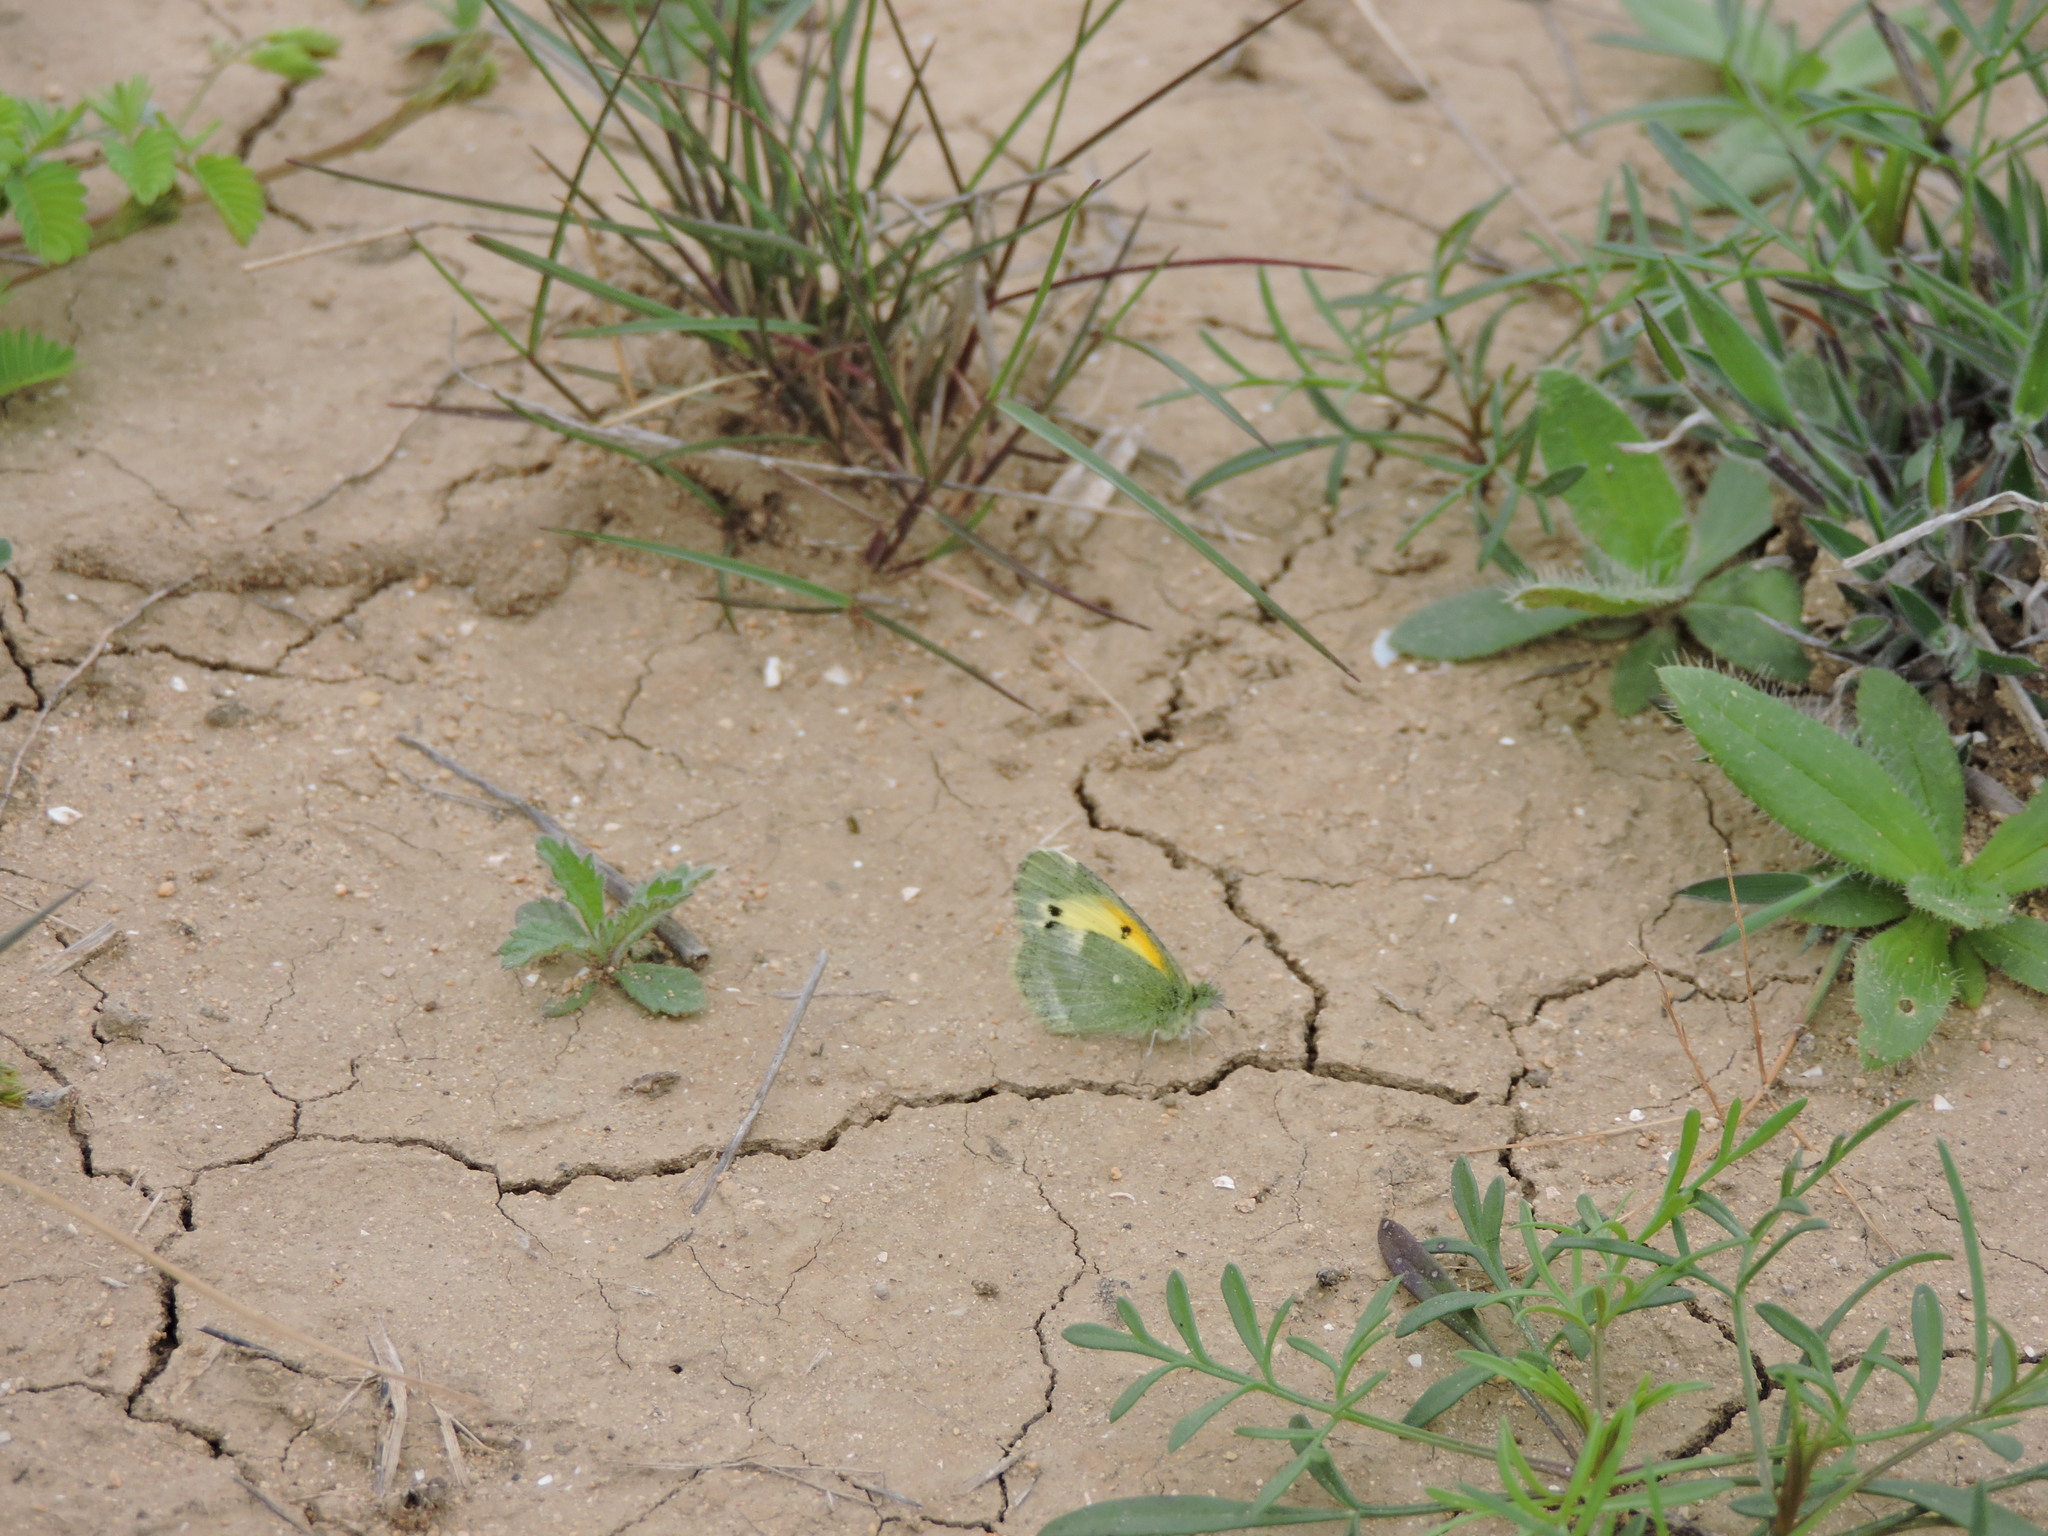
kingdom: Animalia
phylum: Arthropoda
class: Insecta
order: Lepidoptera
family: Pieridae
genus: Nathalis
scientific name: Nathalis iole
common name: Dainty sulphur
